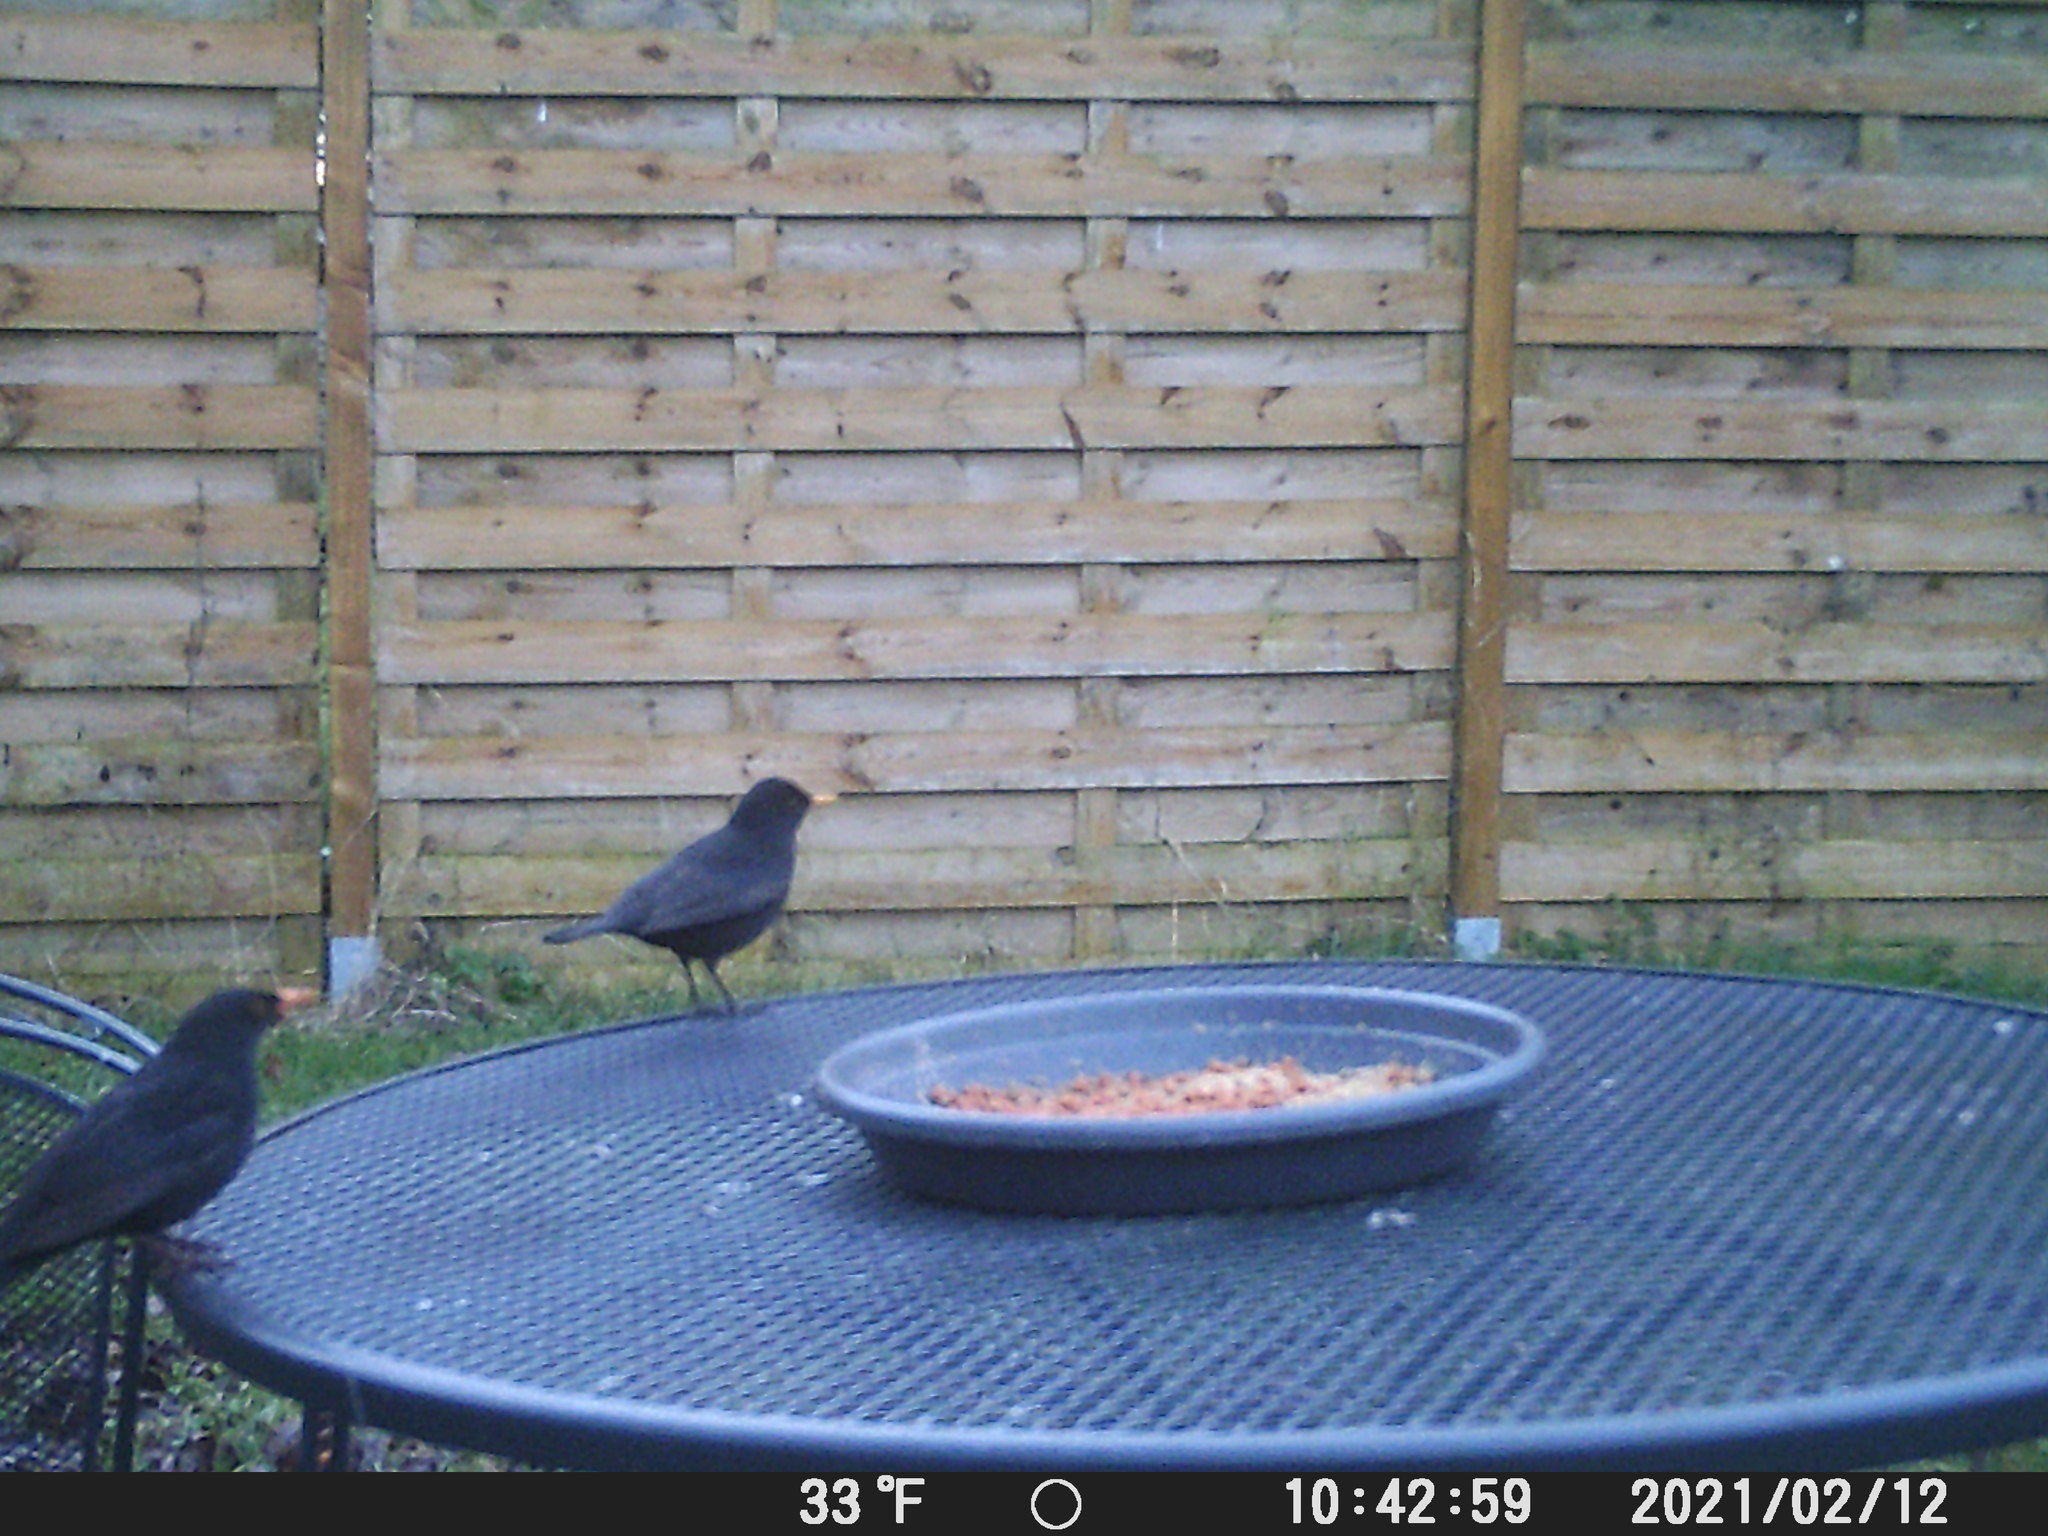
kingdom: Animalia
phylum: Chordata
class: Aves
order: Passeriformes
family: Turdidae
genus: Turdus
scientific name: Turdus merula
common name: Common blackbird
